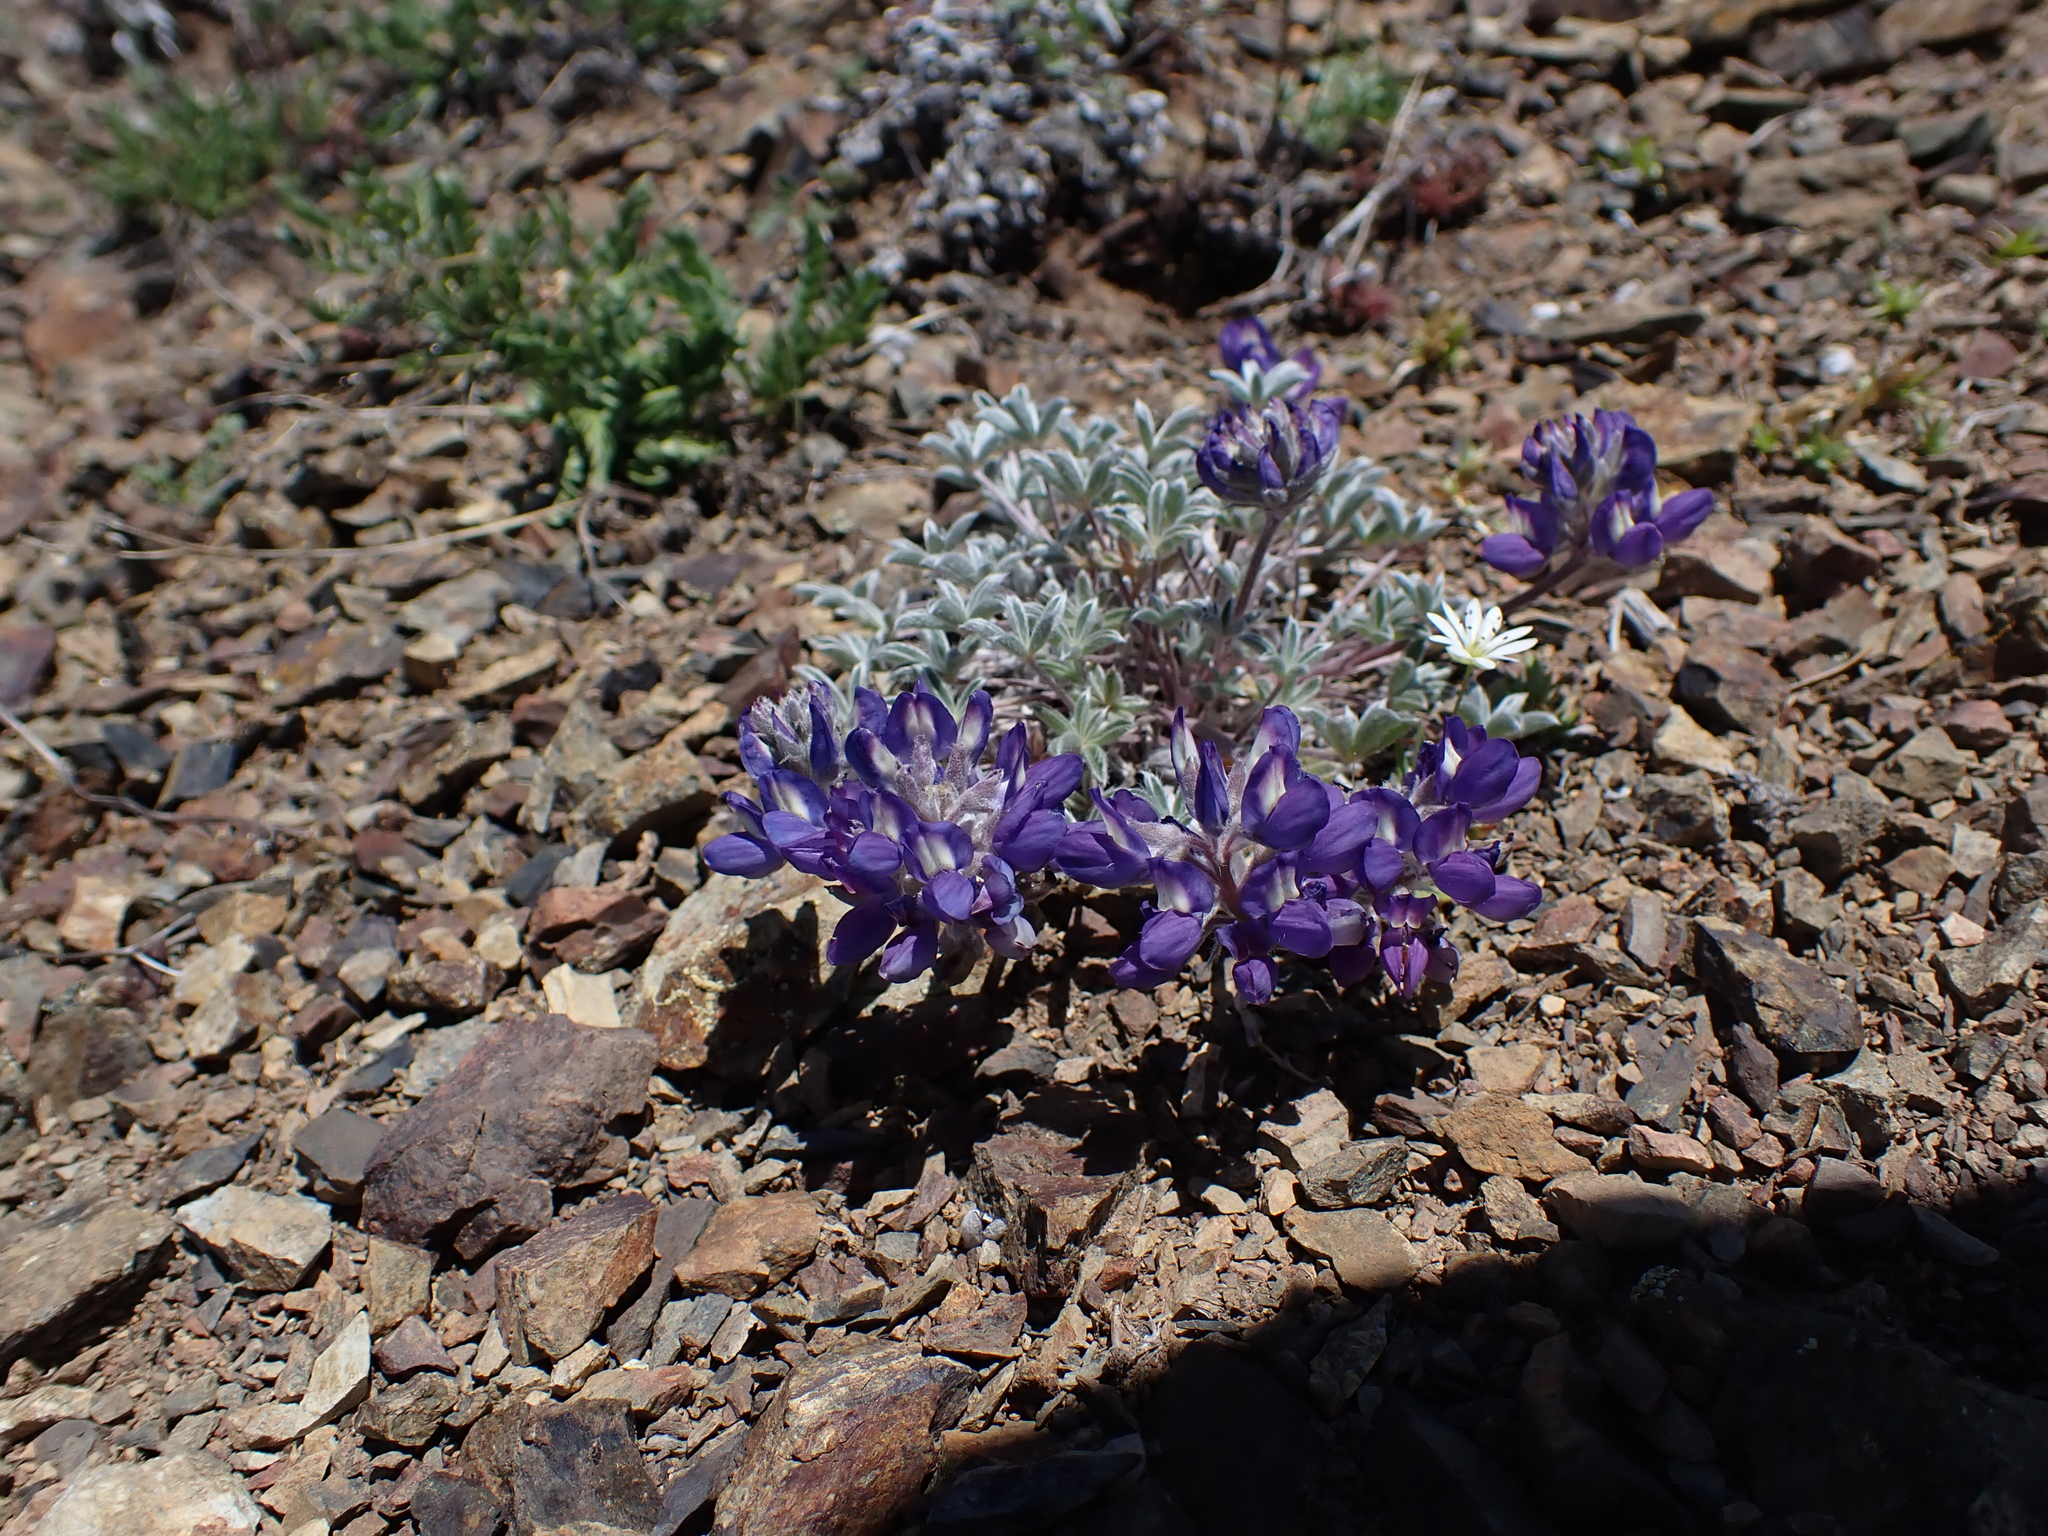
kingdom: Plantae
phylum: Tracheophyta
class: Magnoliopsida
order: Fabales
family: Fabaceae
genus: Lupinus
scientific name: Lupinus lepidus
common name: Prairie lupine
